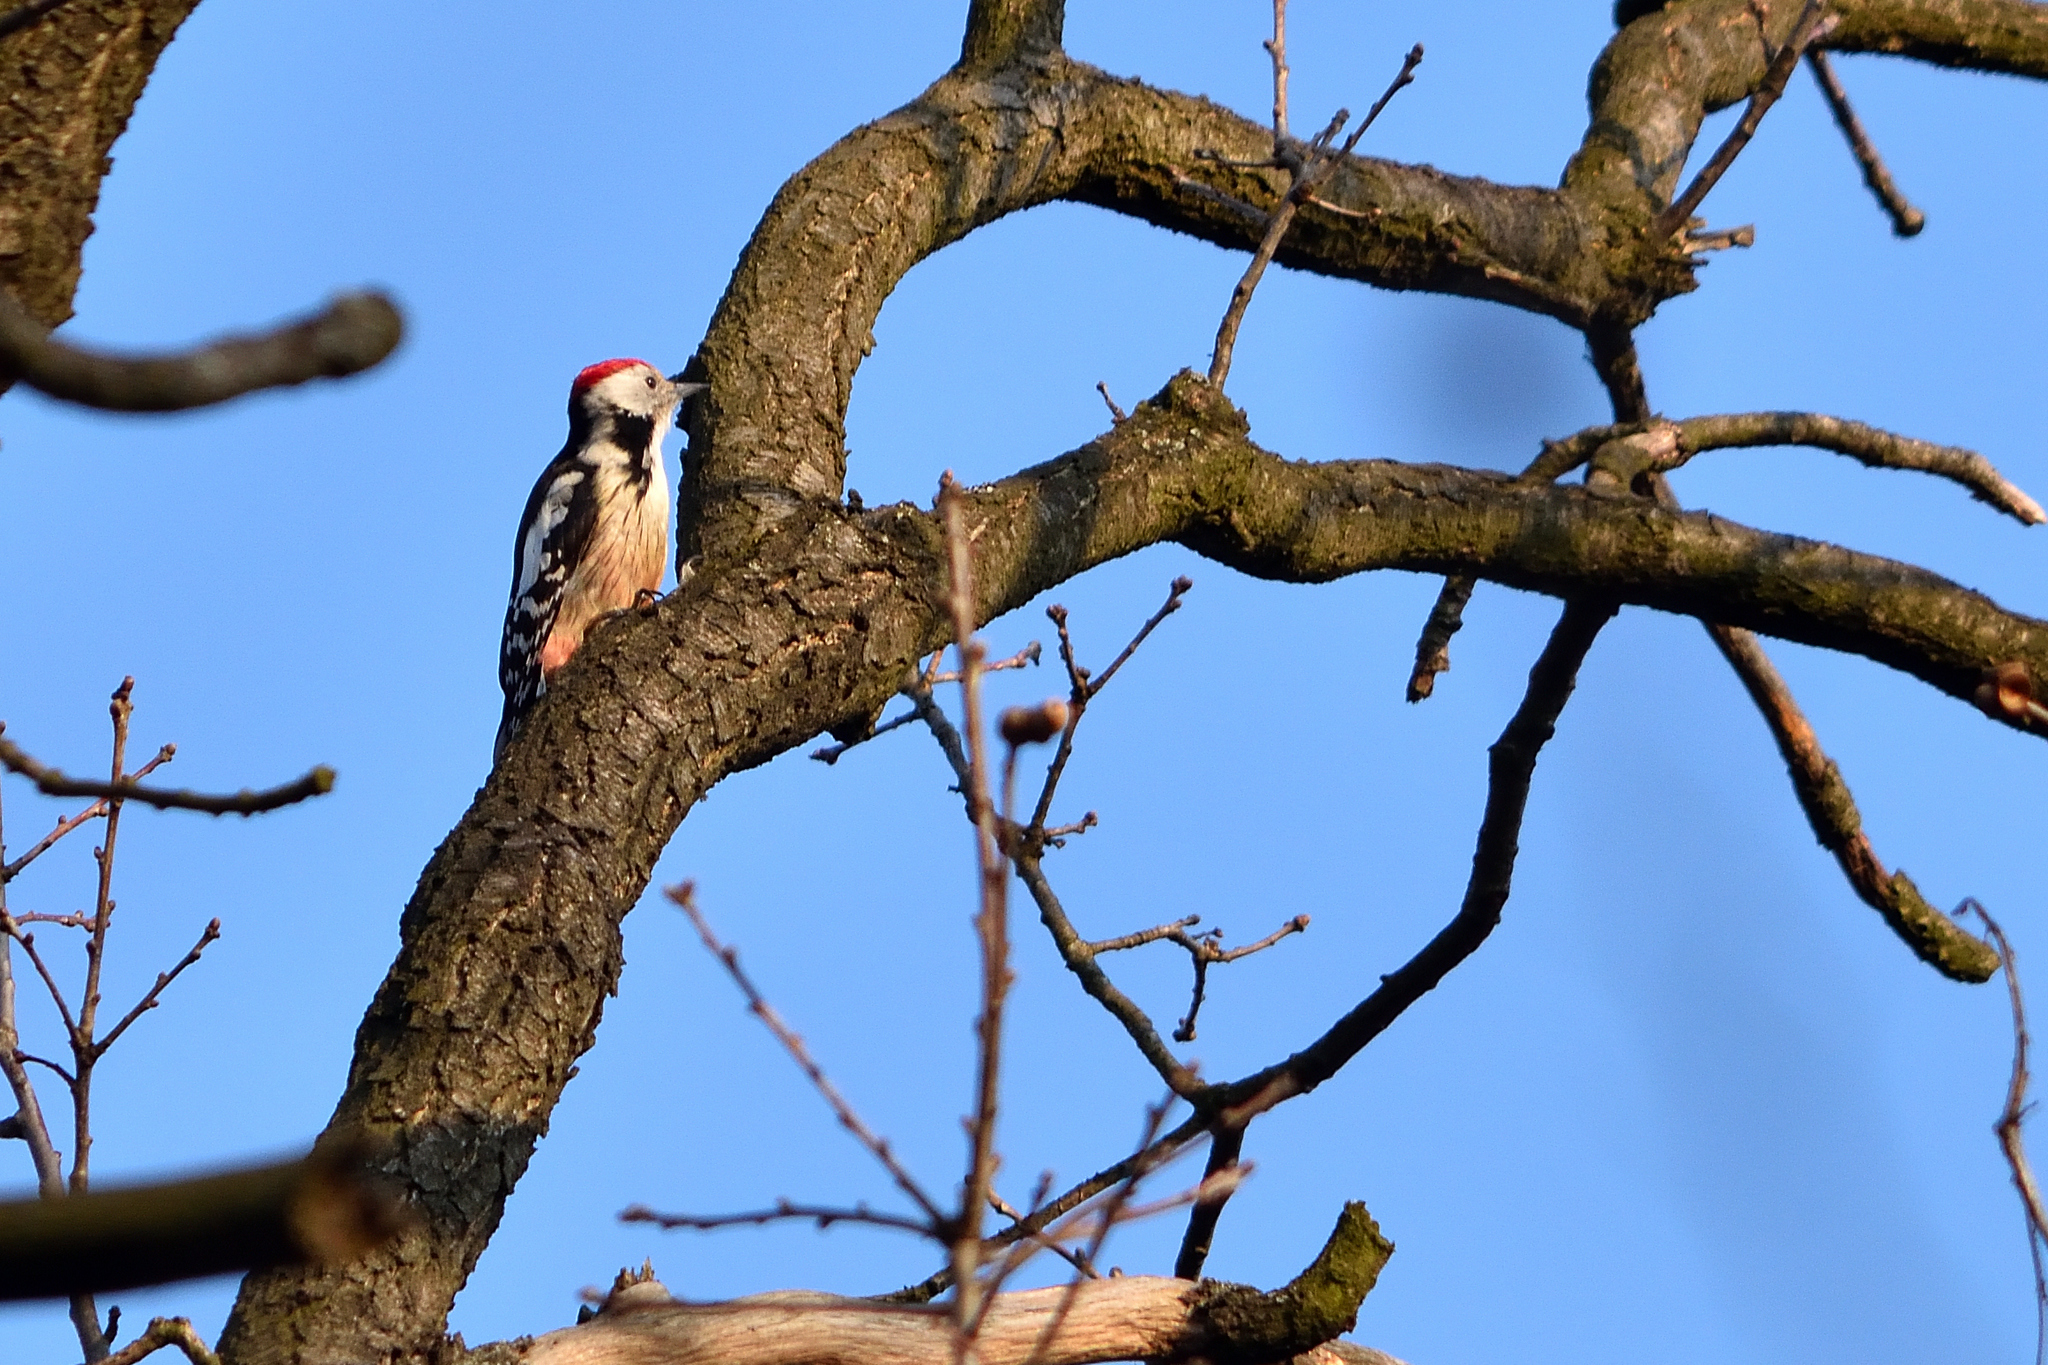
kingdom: Animalia
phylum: Chordata
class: Aves
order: Piciformes
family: Picidae
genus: Dendrocoptes
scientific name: Dendrocoptes medius
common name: Middle spotted woodpecker
